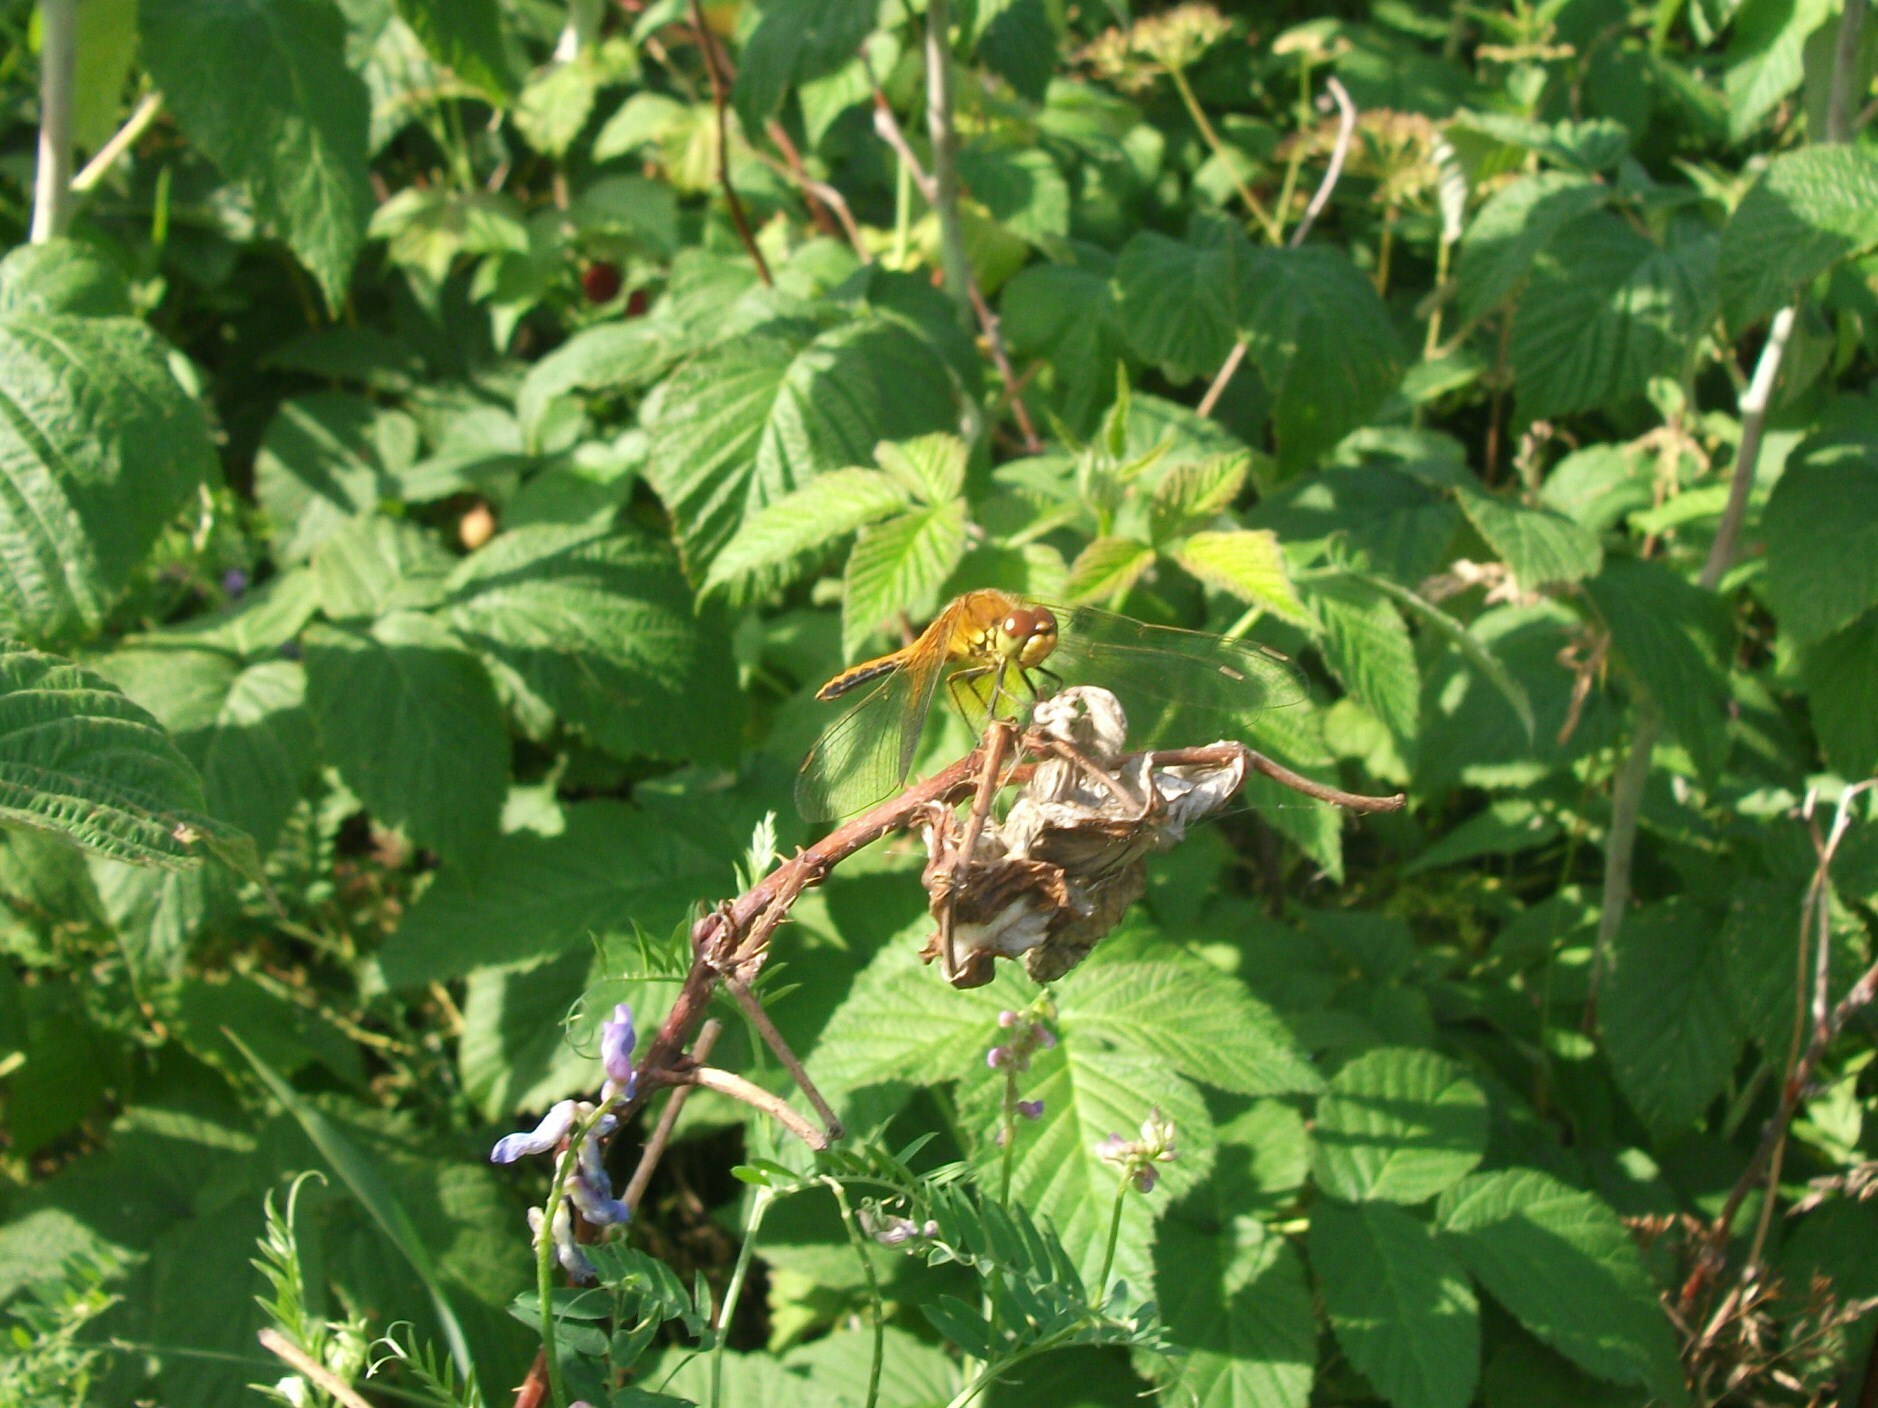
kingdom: Animalia
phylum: Arthropoda
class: Insecta
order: Odonata
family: Libellulidae
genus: Sympetrum
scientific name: Sympetrum flaveolum
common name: Yellow-winged darter
